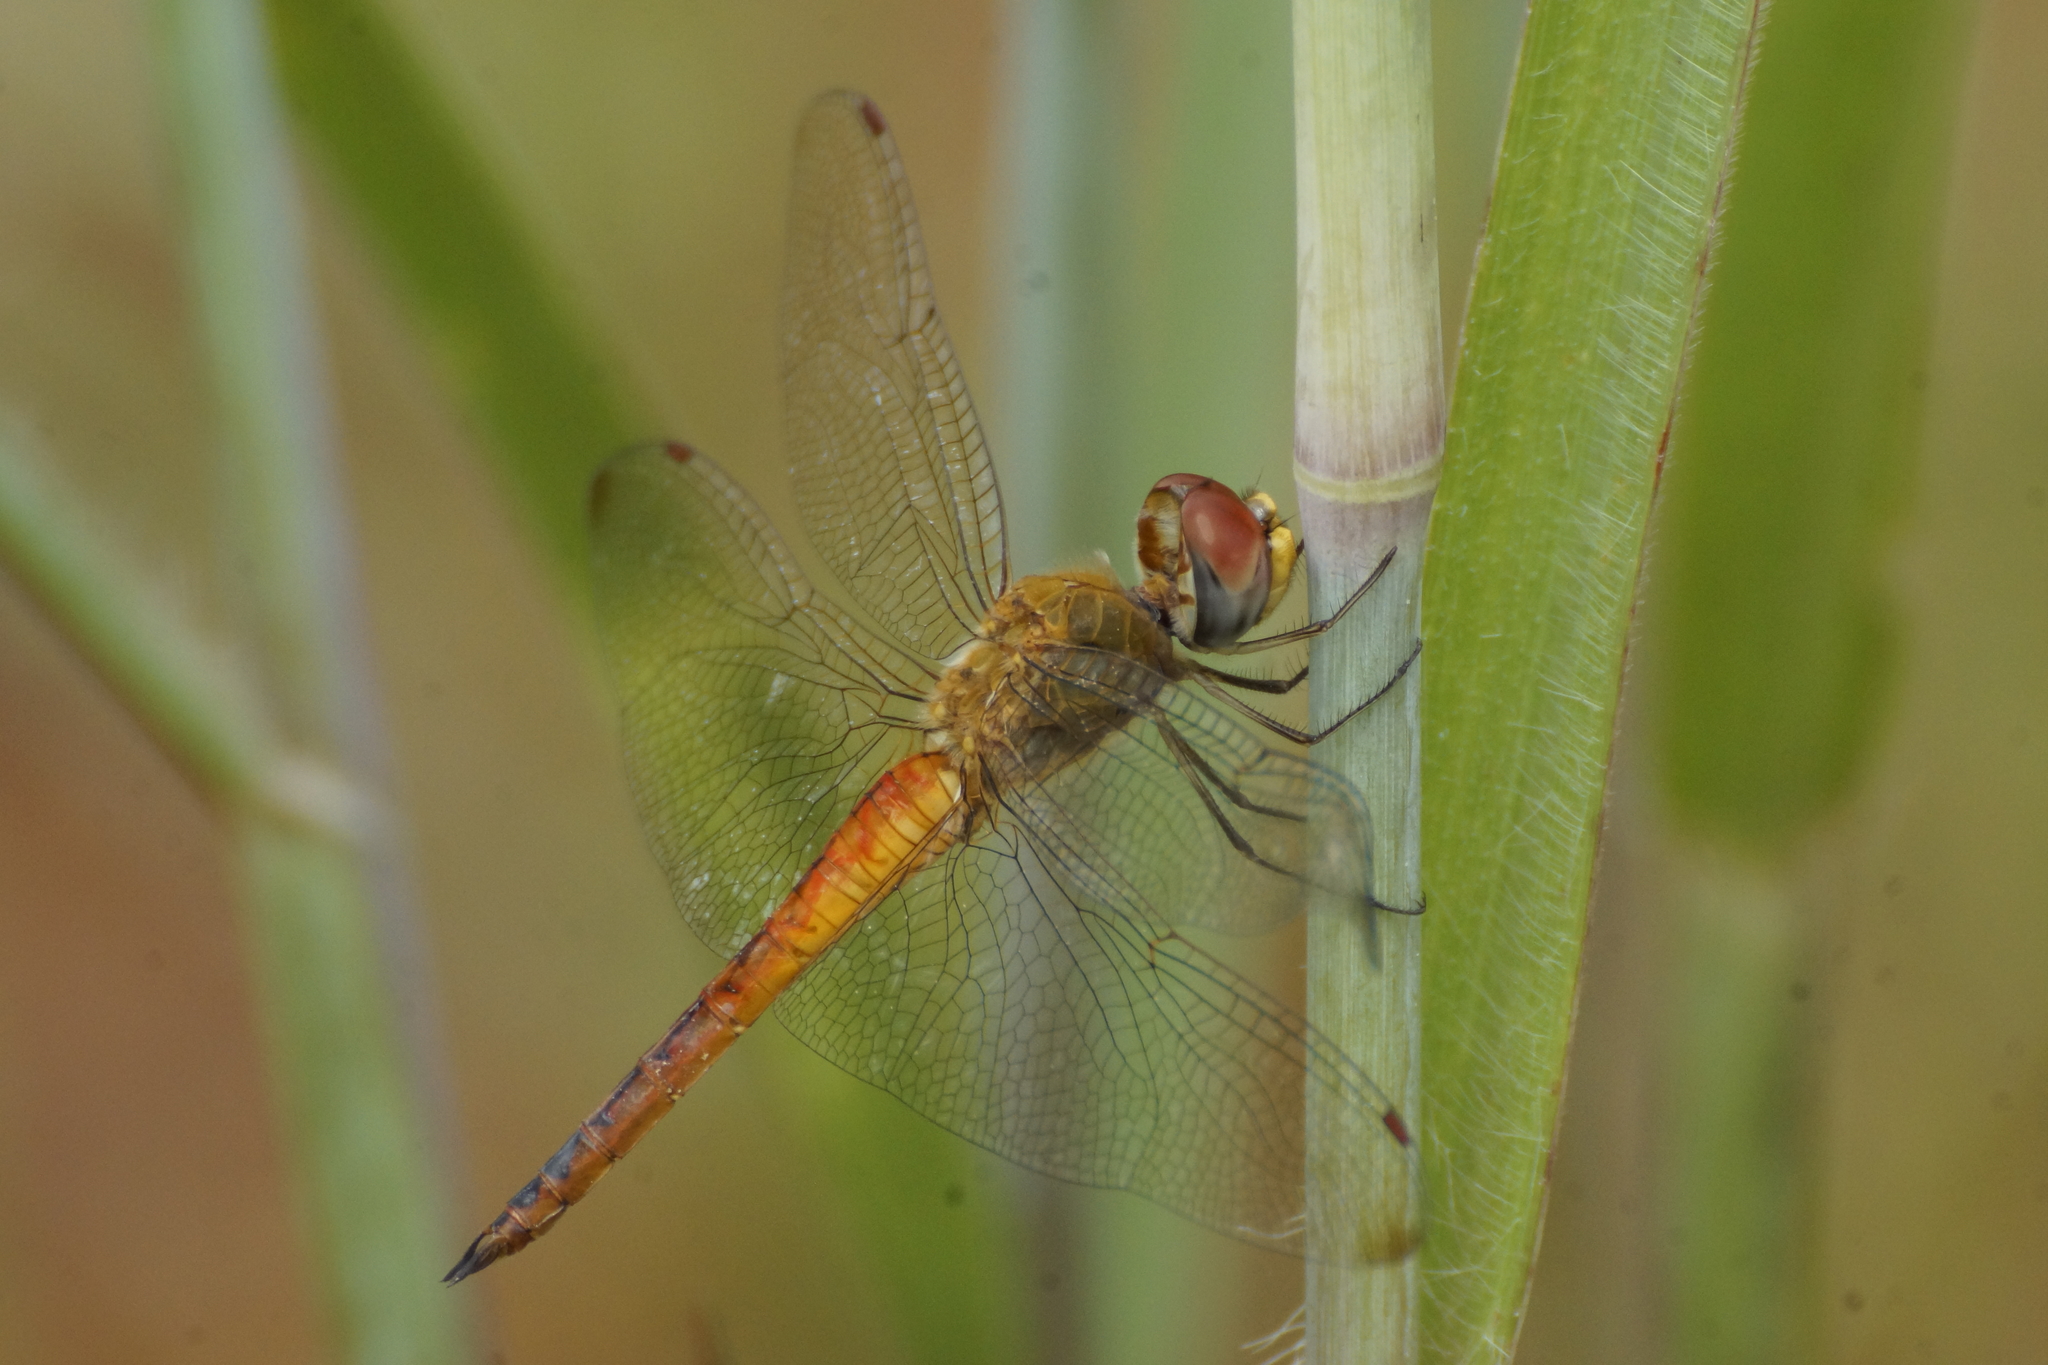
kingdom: Animalia
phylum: Arthropoda
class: Insecta
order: Odonata
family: Libellulidae
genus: Pantala
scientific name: Pantala flavescens
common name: Wandering glider
